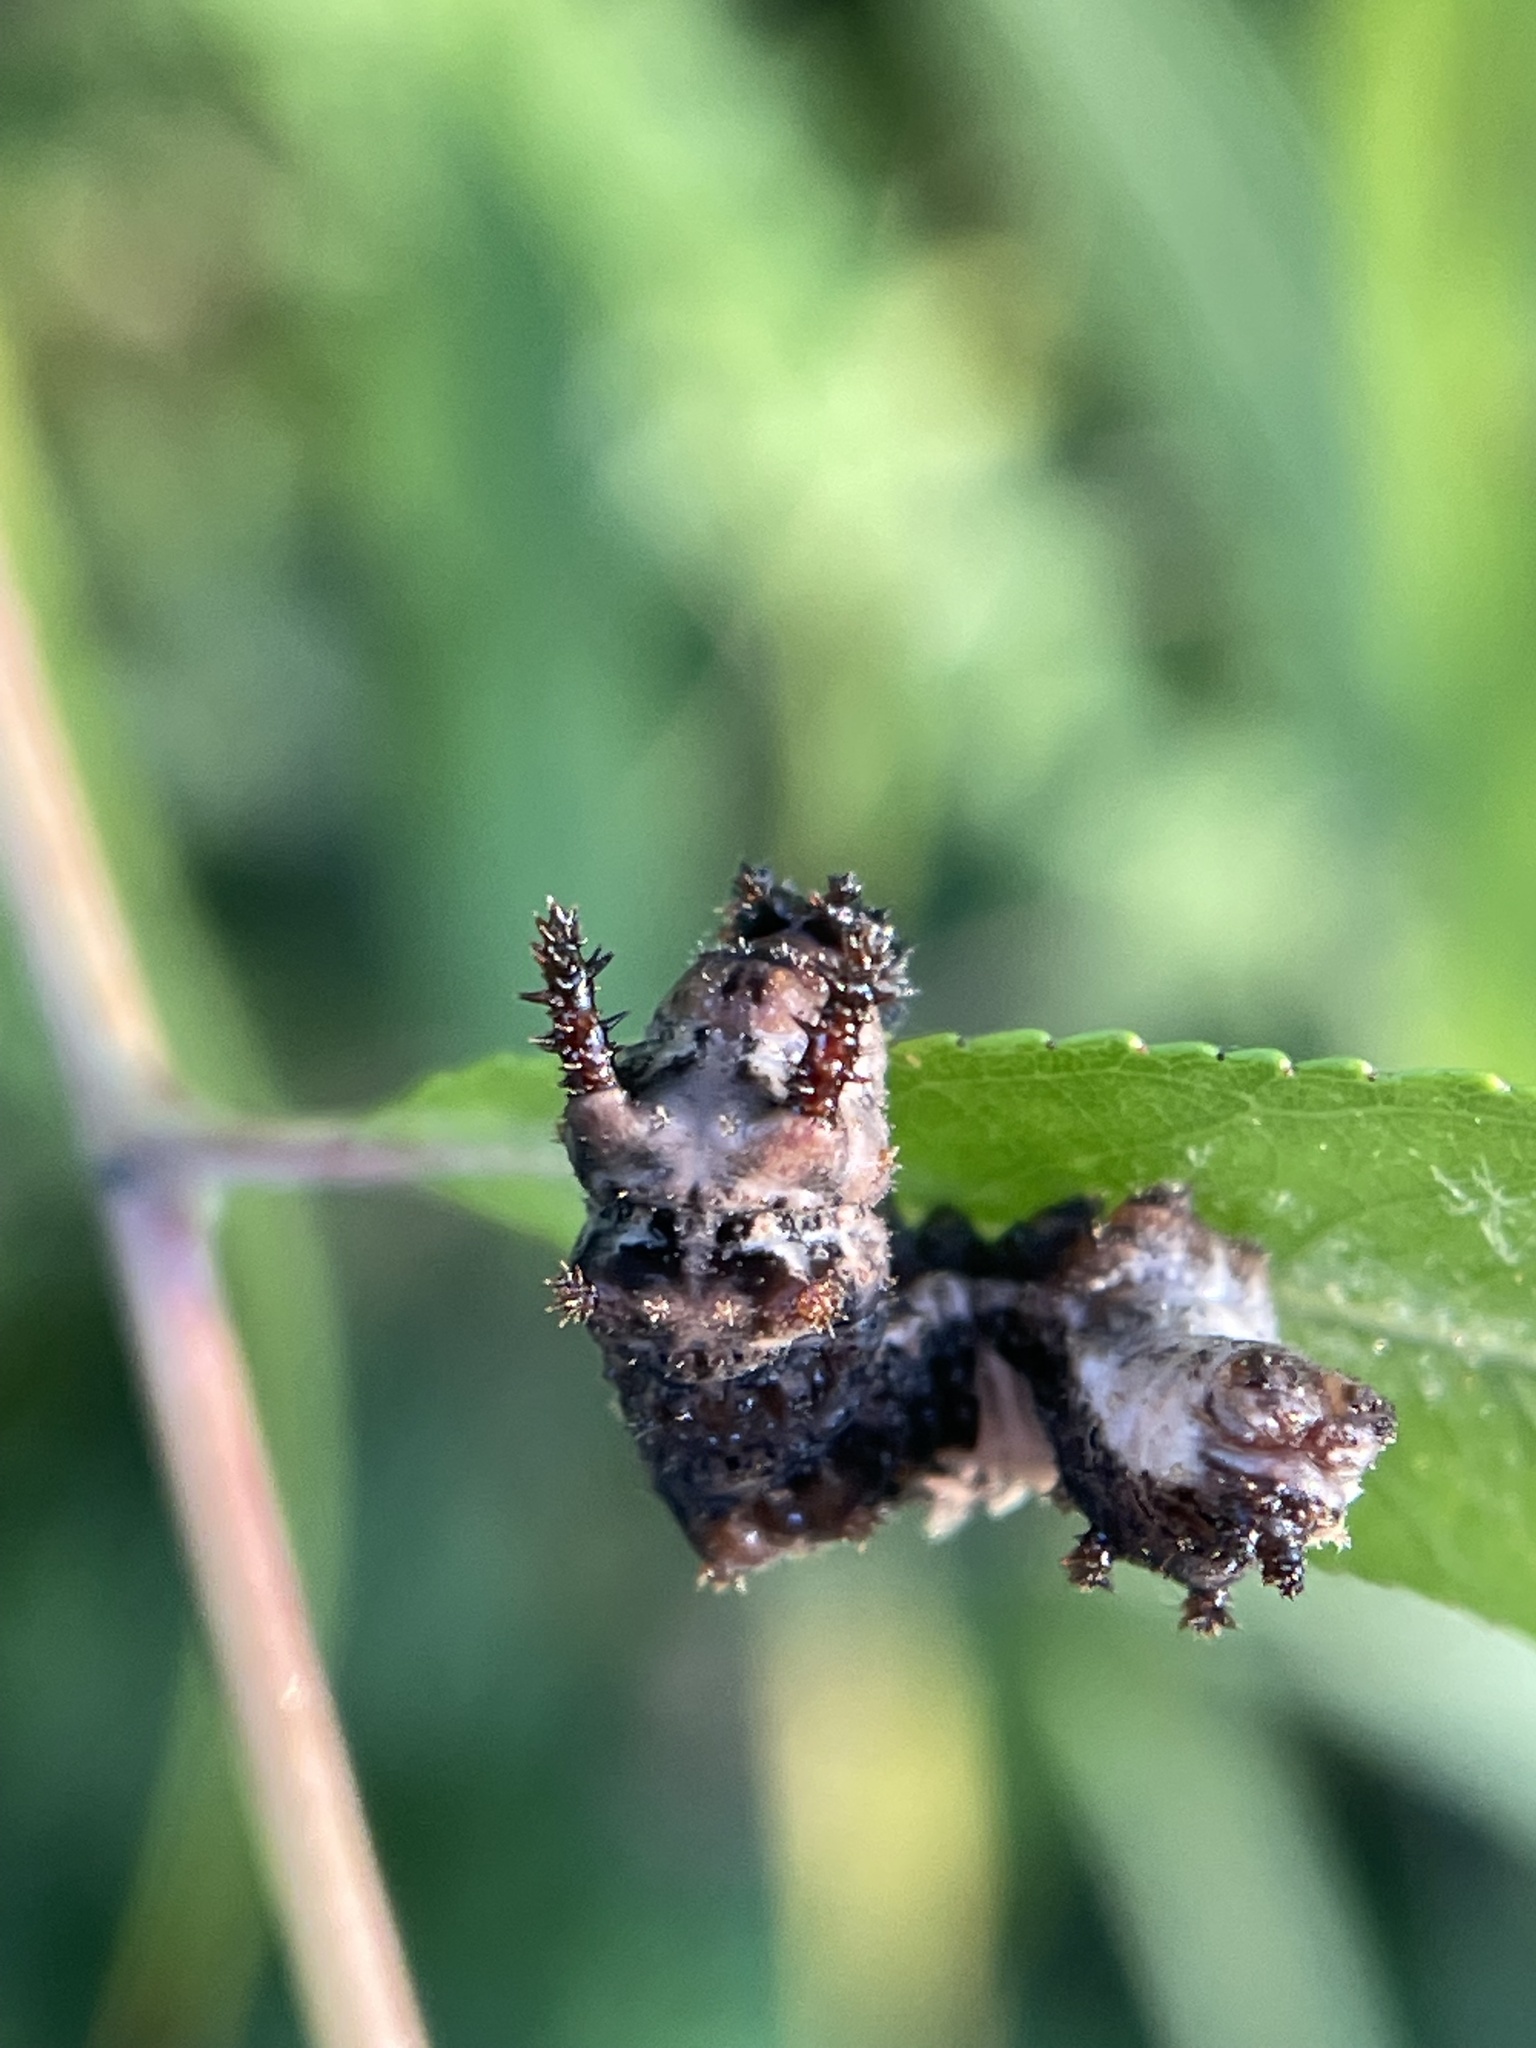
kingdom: Animalia
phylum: Arthropoda
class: Insecta
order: Lepidoptera
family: Nymphalidae
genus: Limenitis
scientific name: Limenitis archippus
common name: Viceroy
